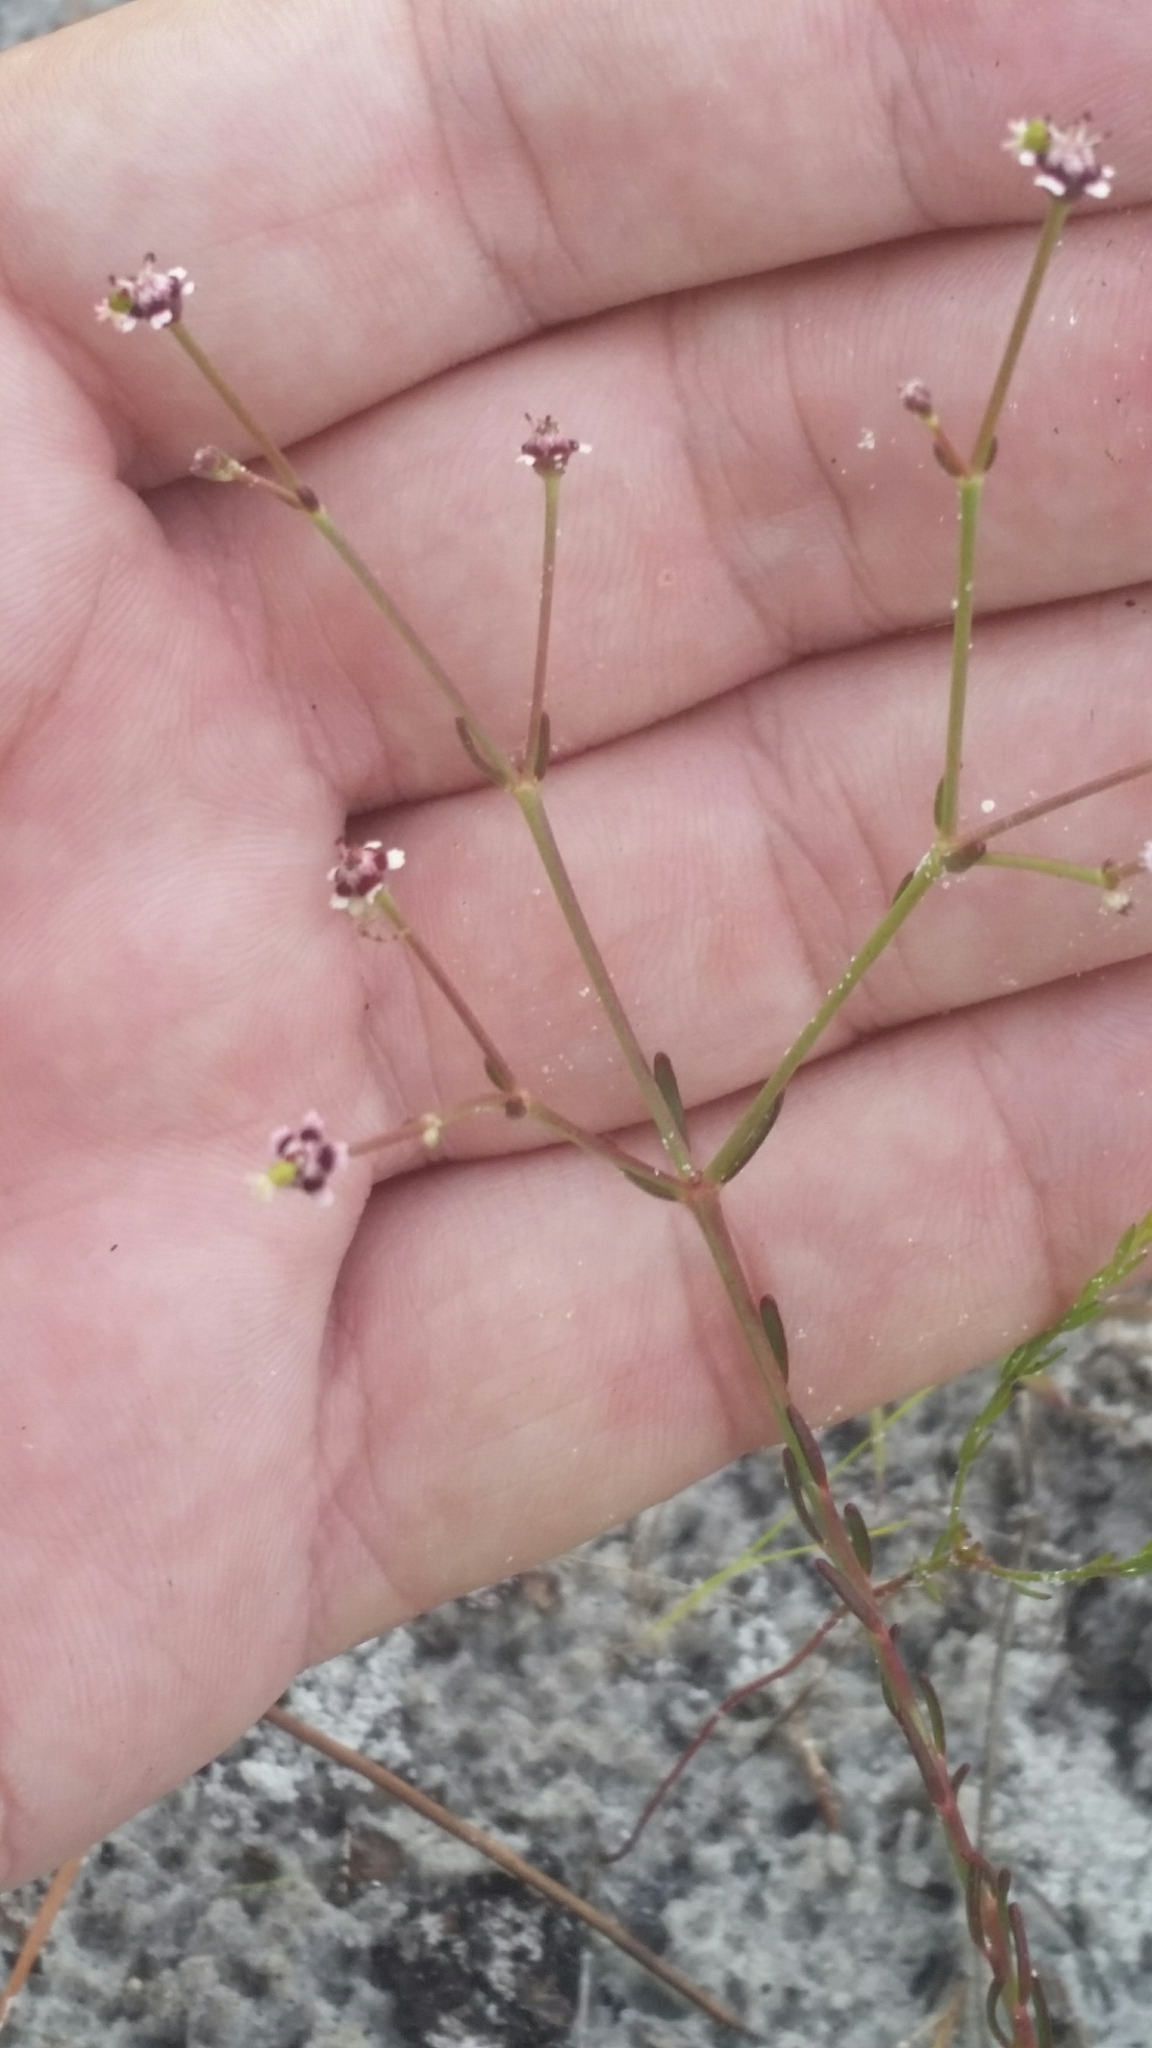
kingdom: Plantae
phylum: Tracheophyta
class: Magnoliopsida
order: Malpighiales
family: Euphorbiaceae
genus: Euphorbia
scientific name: Euphorbia polyphylla
